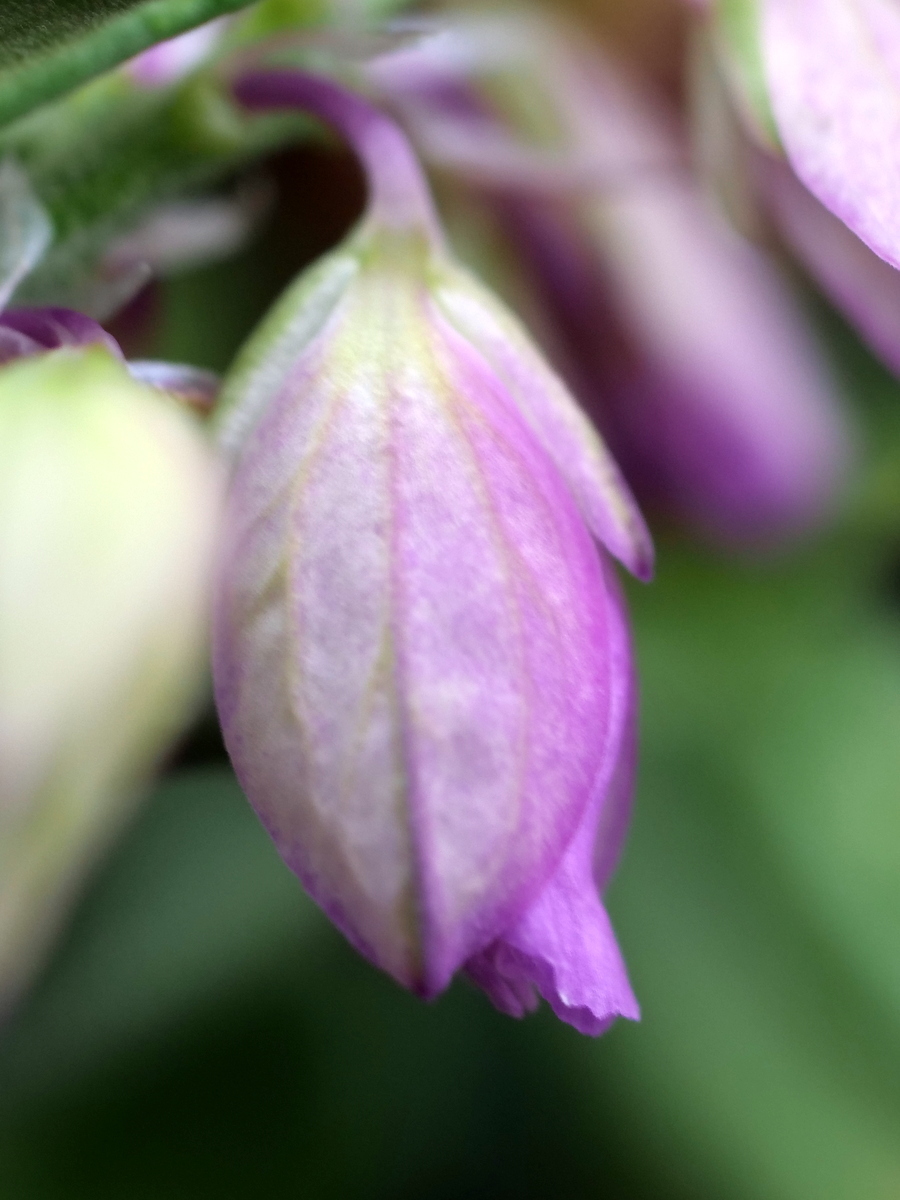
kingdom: Plantae
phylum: Tracheophyta
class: Magnoliopsida
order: Fabales
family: Polygalaceae
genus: Polygala
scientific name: Polygala comosa
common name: Tufted milkwort
